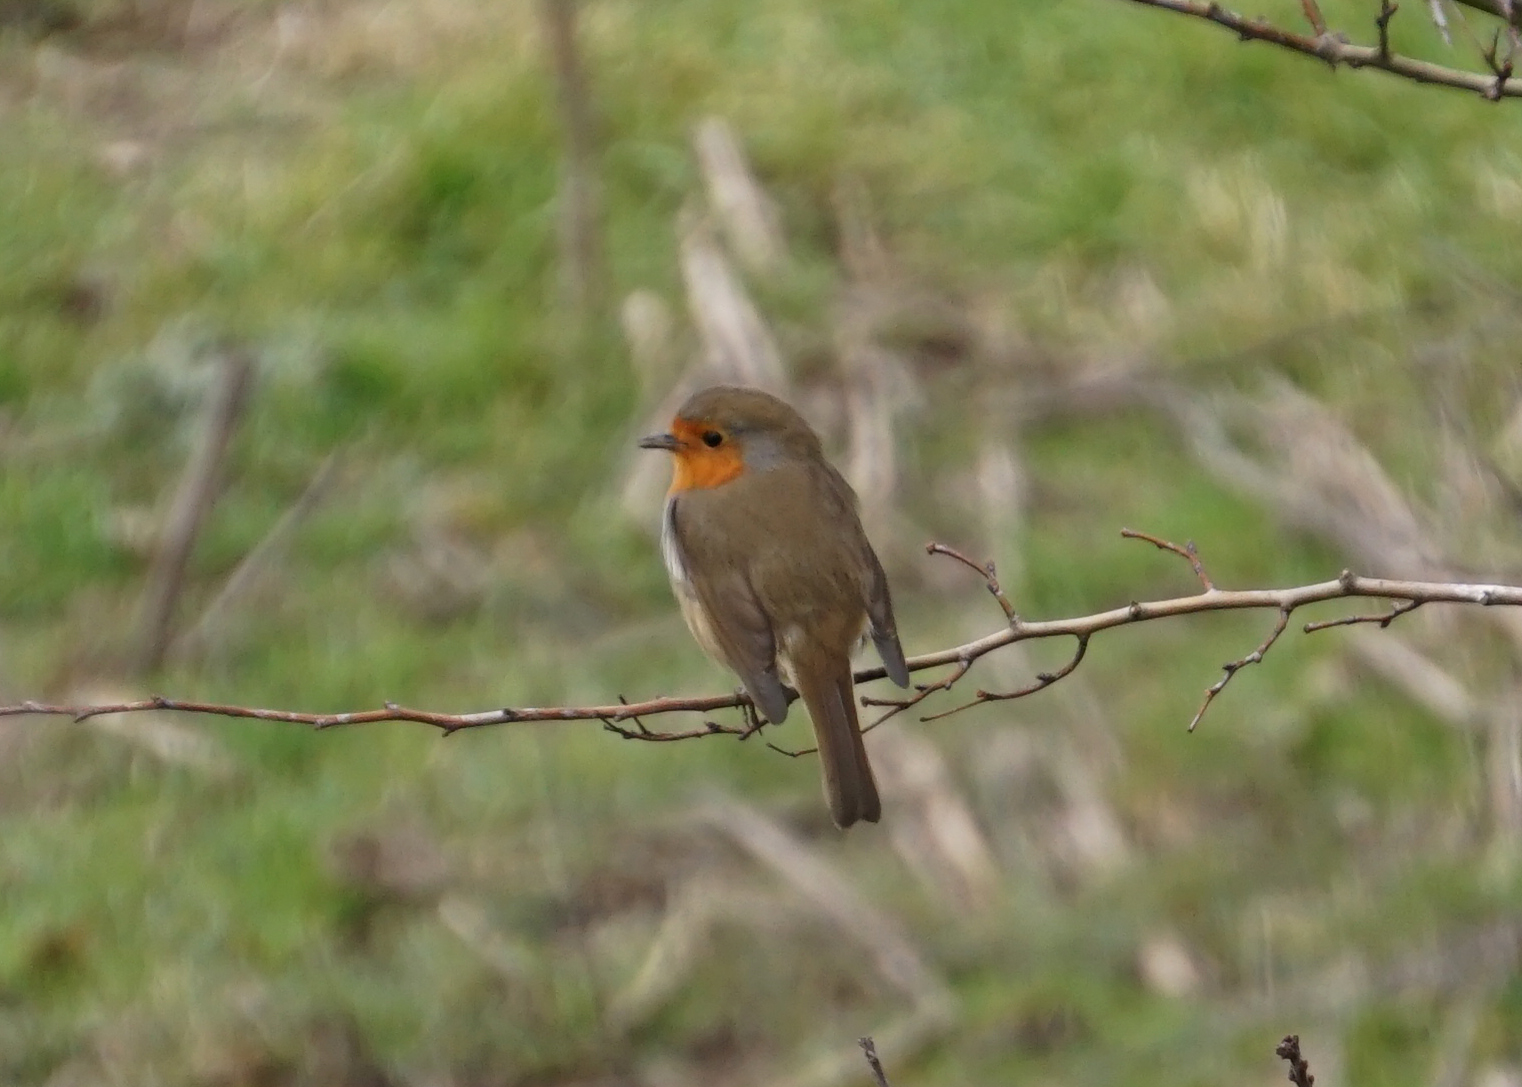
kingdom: Animalia
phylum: Chordata
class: Aves
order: Passeriformes
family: Muscicapidae
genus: Erithacus
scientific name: Erithacus rubecula
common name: European robin
